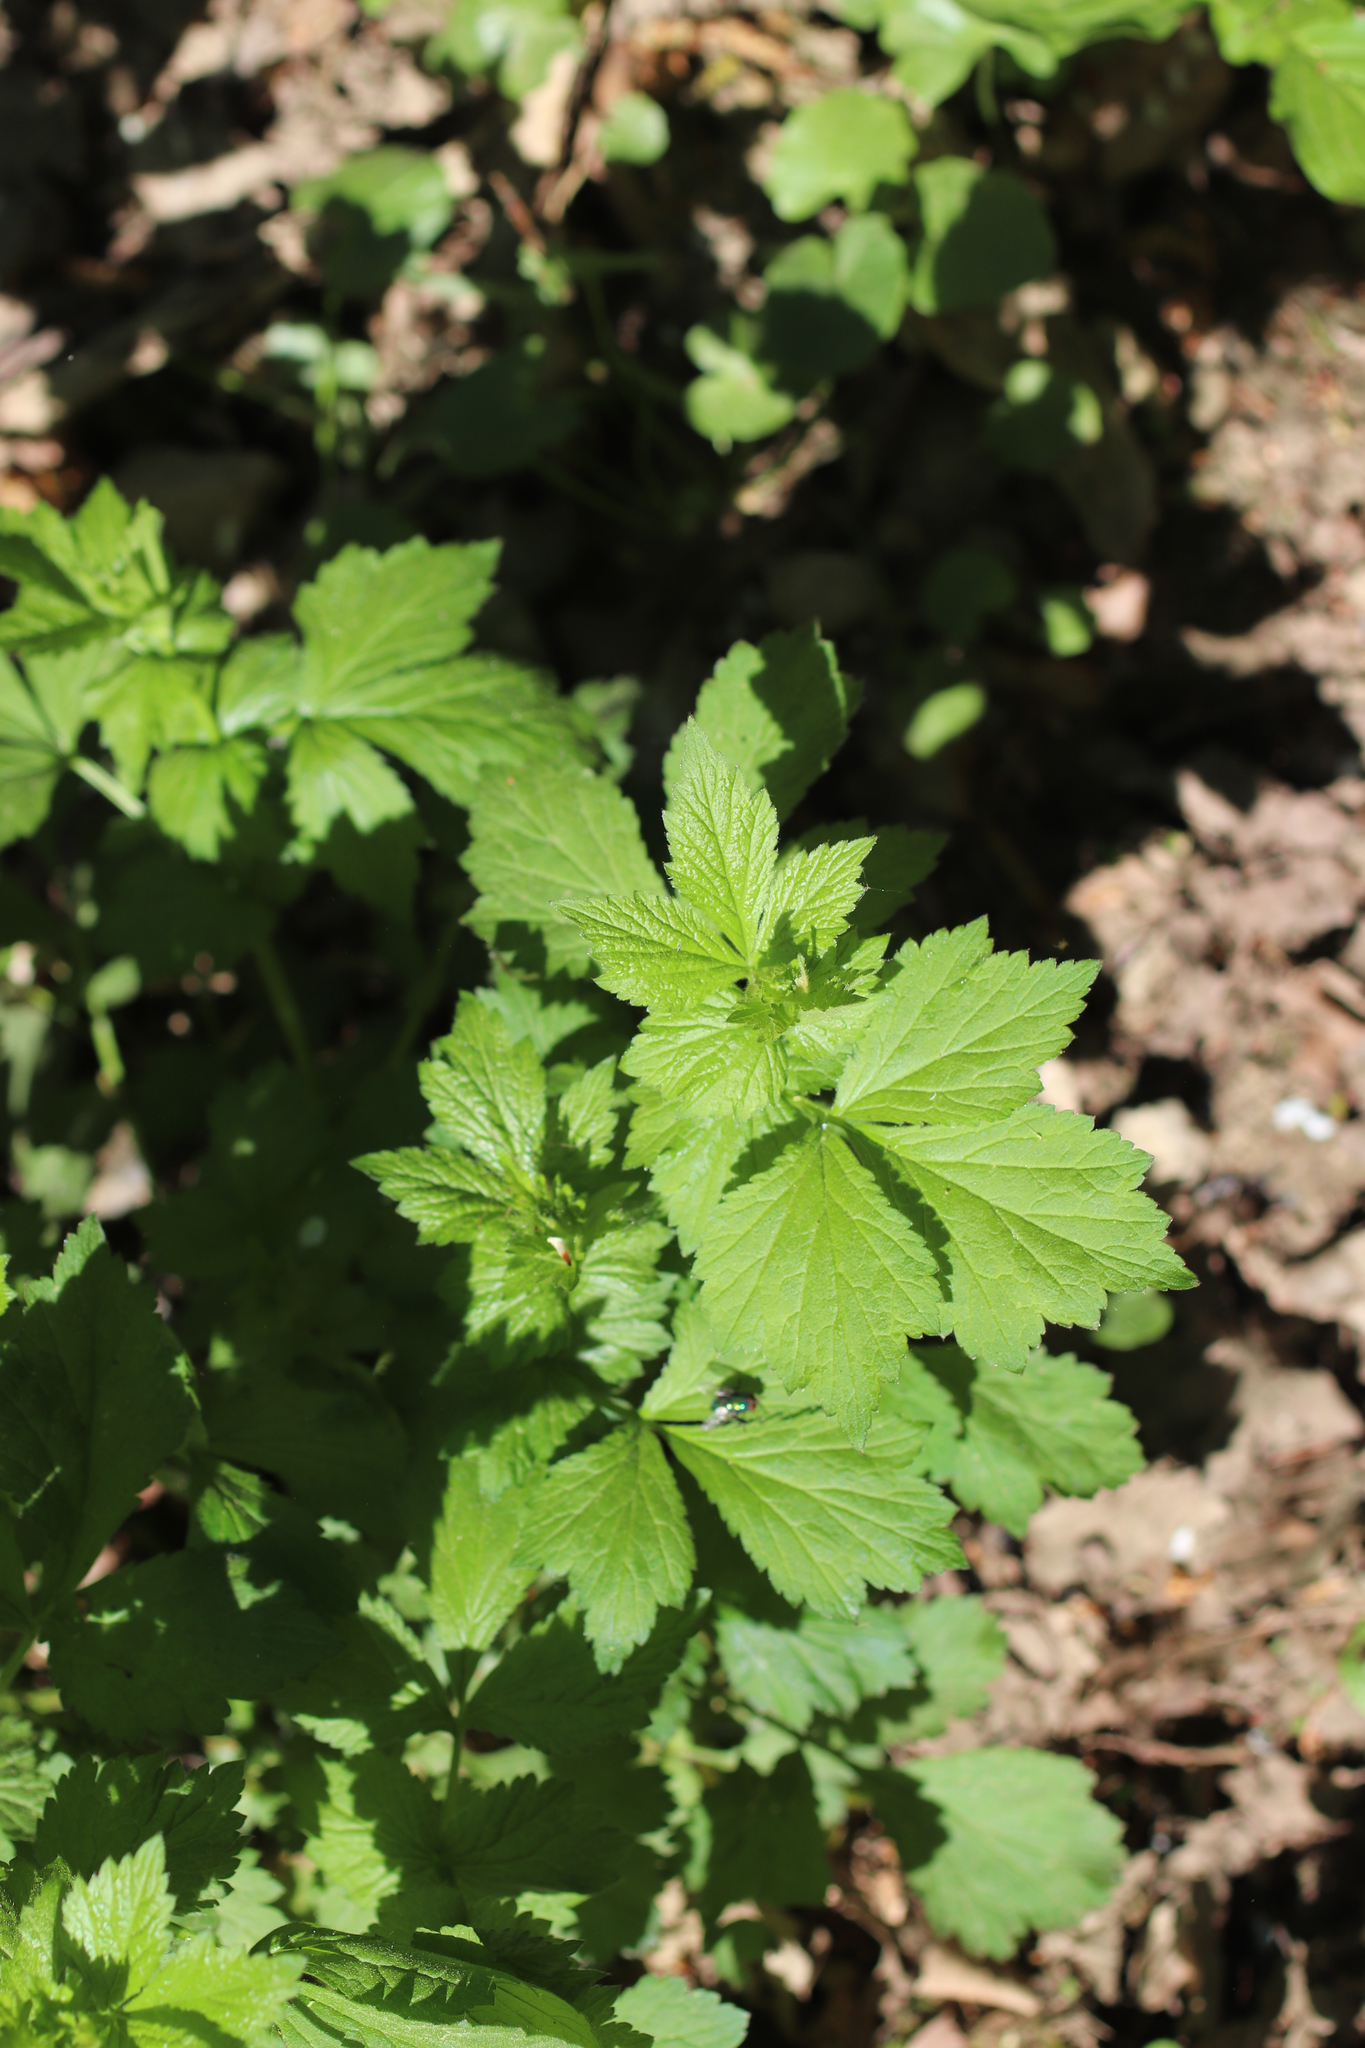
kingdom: Plantae
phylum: Tracheophyta
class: Magnoliopsida
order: Rosales
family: Rosaceae
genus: Geum
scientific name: Geum urbanum
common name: Wood avens
